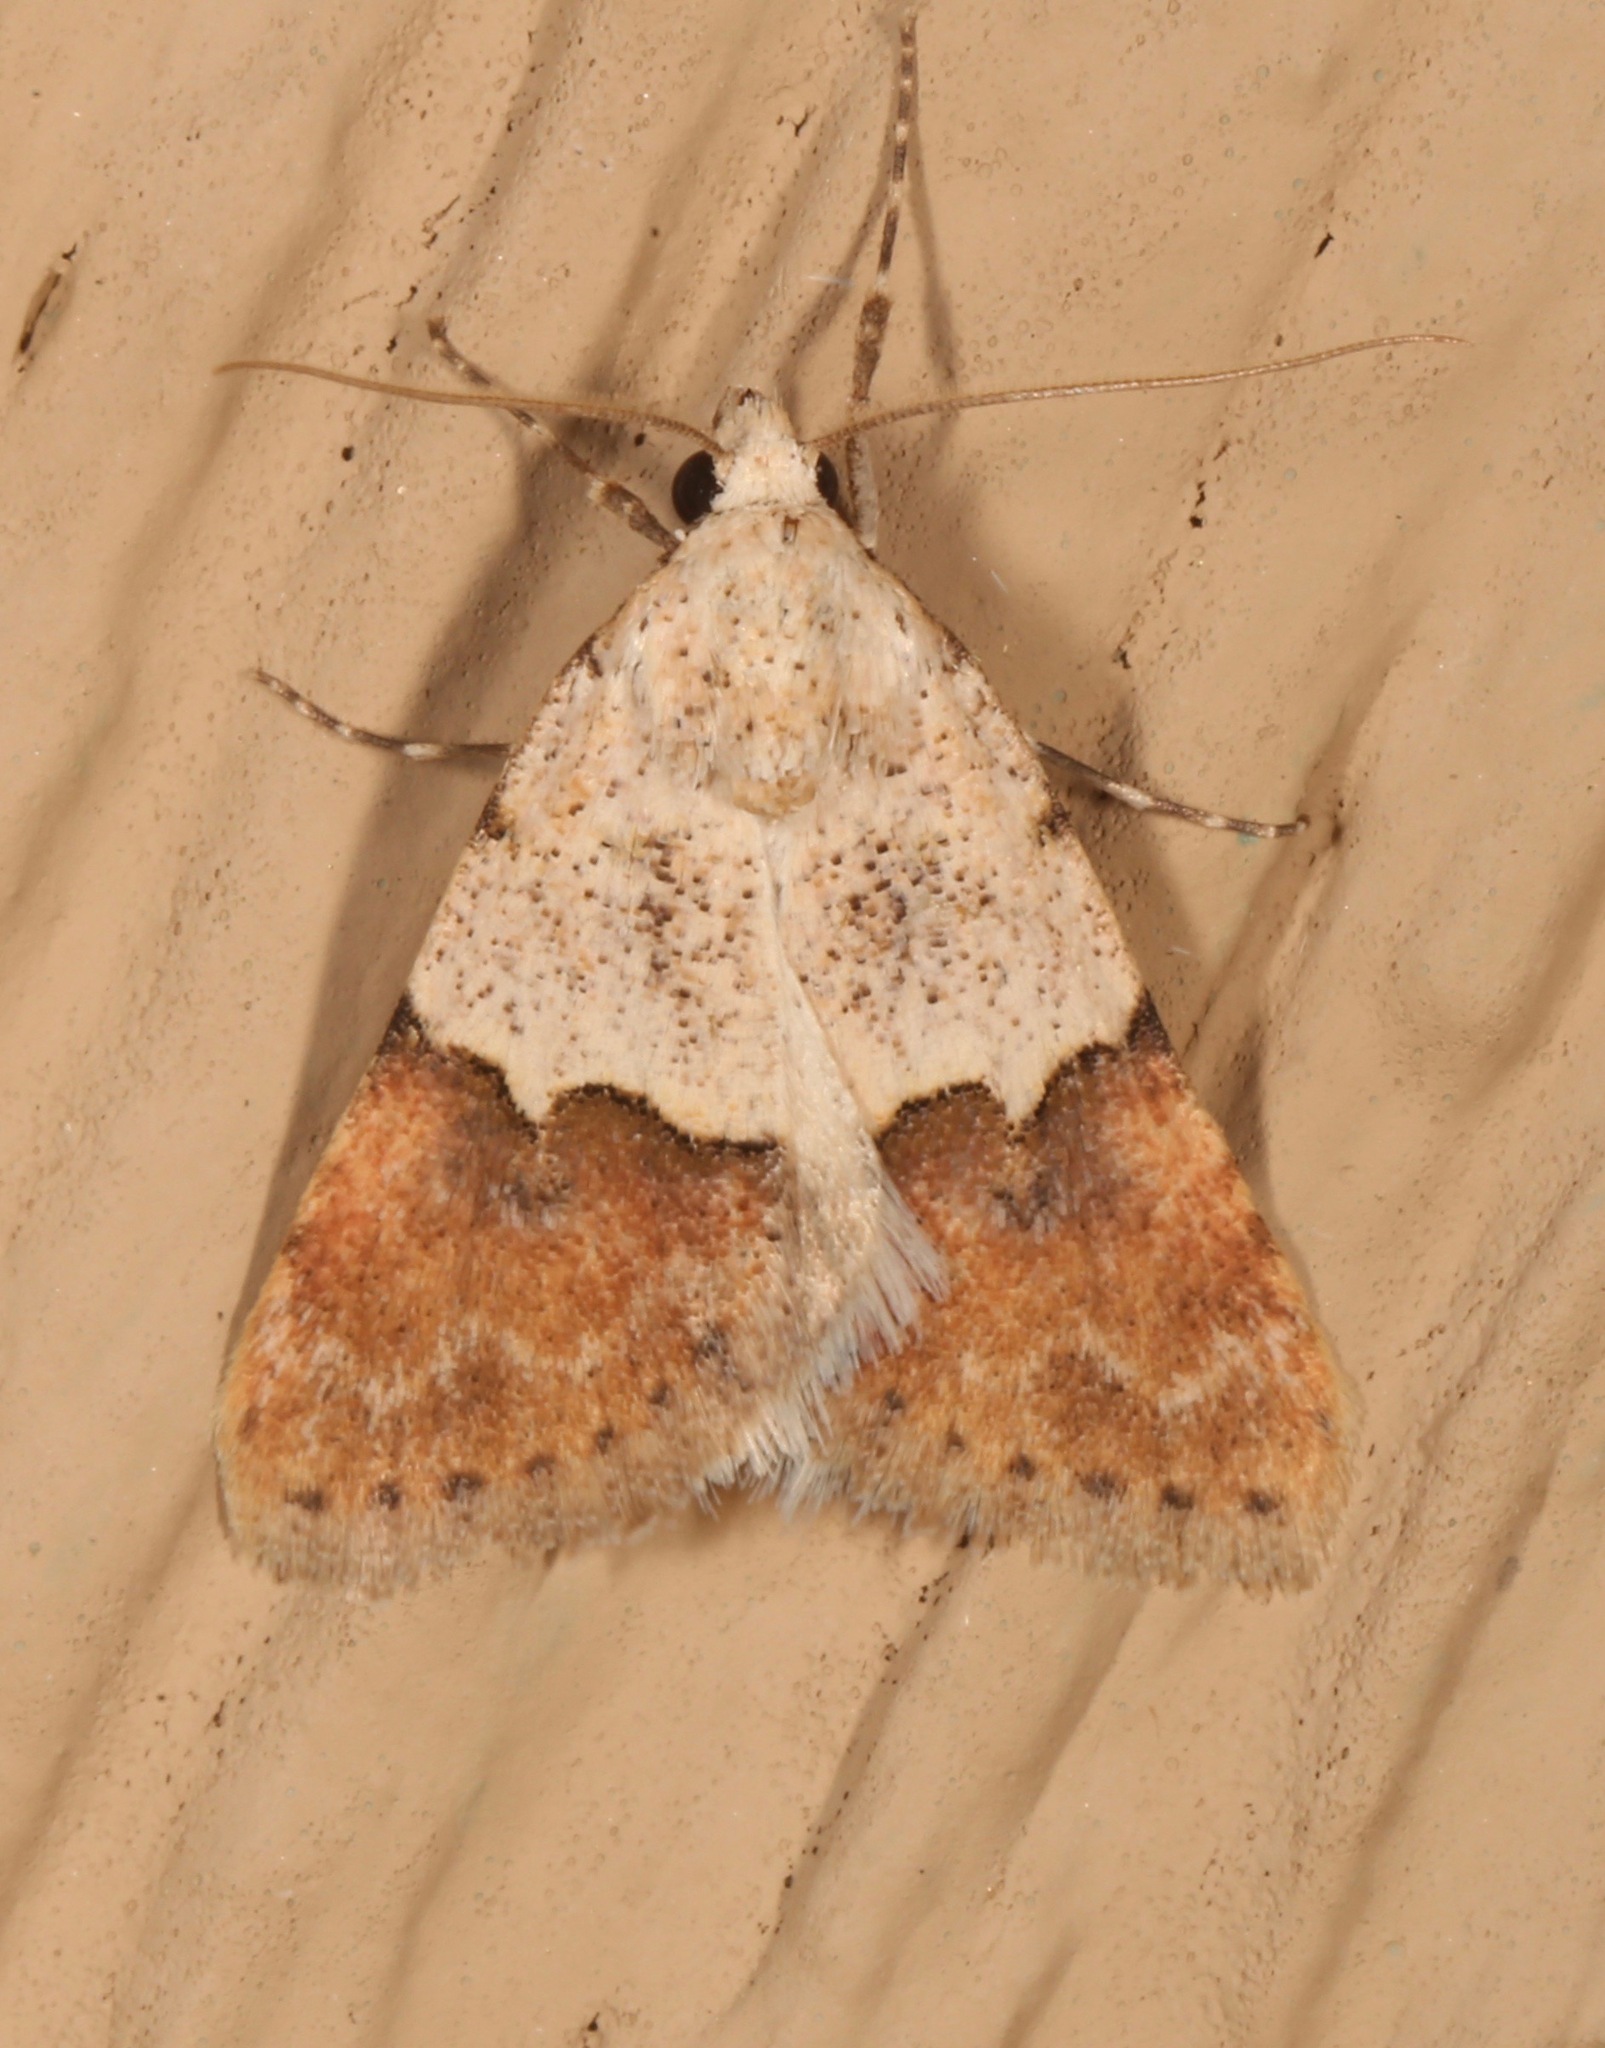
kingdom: Animalia
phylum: Arthropoda
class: Insecta
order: Lepidoptera
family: Noctuidae
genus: Euaontia
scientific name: Euaontia semirufa
